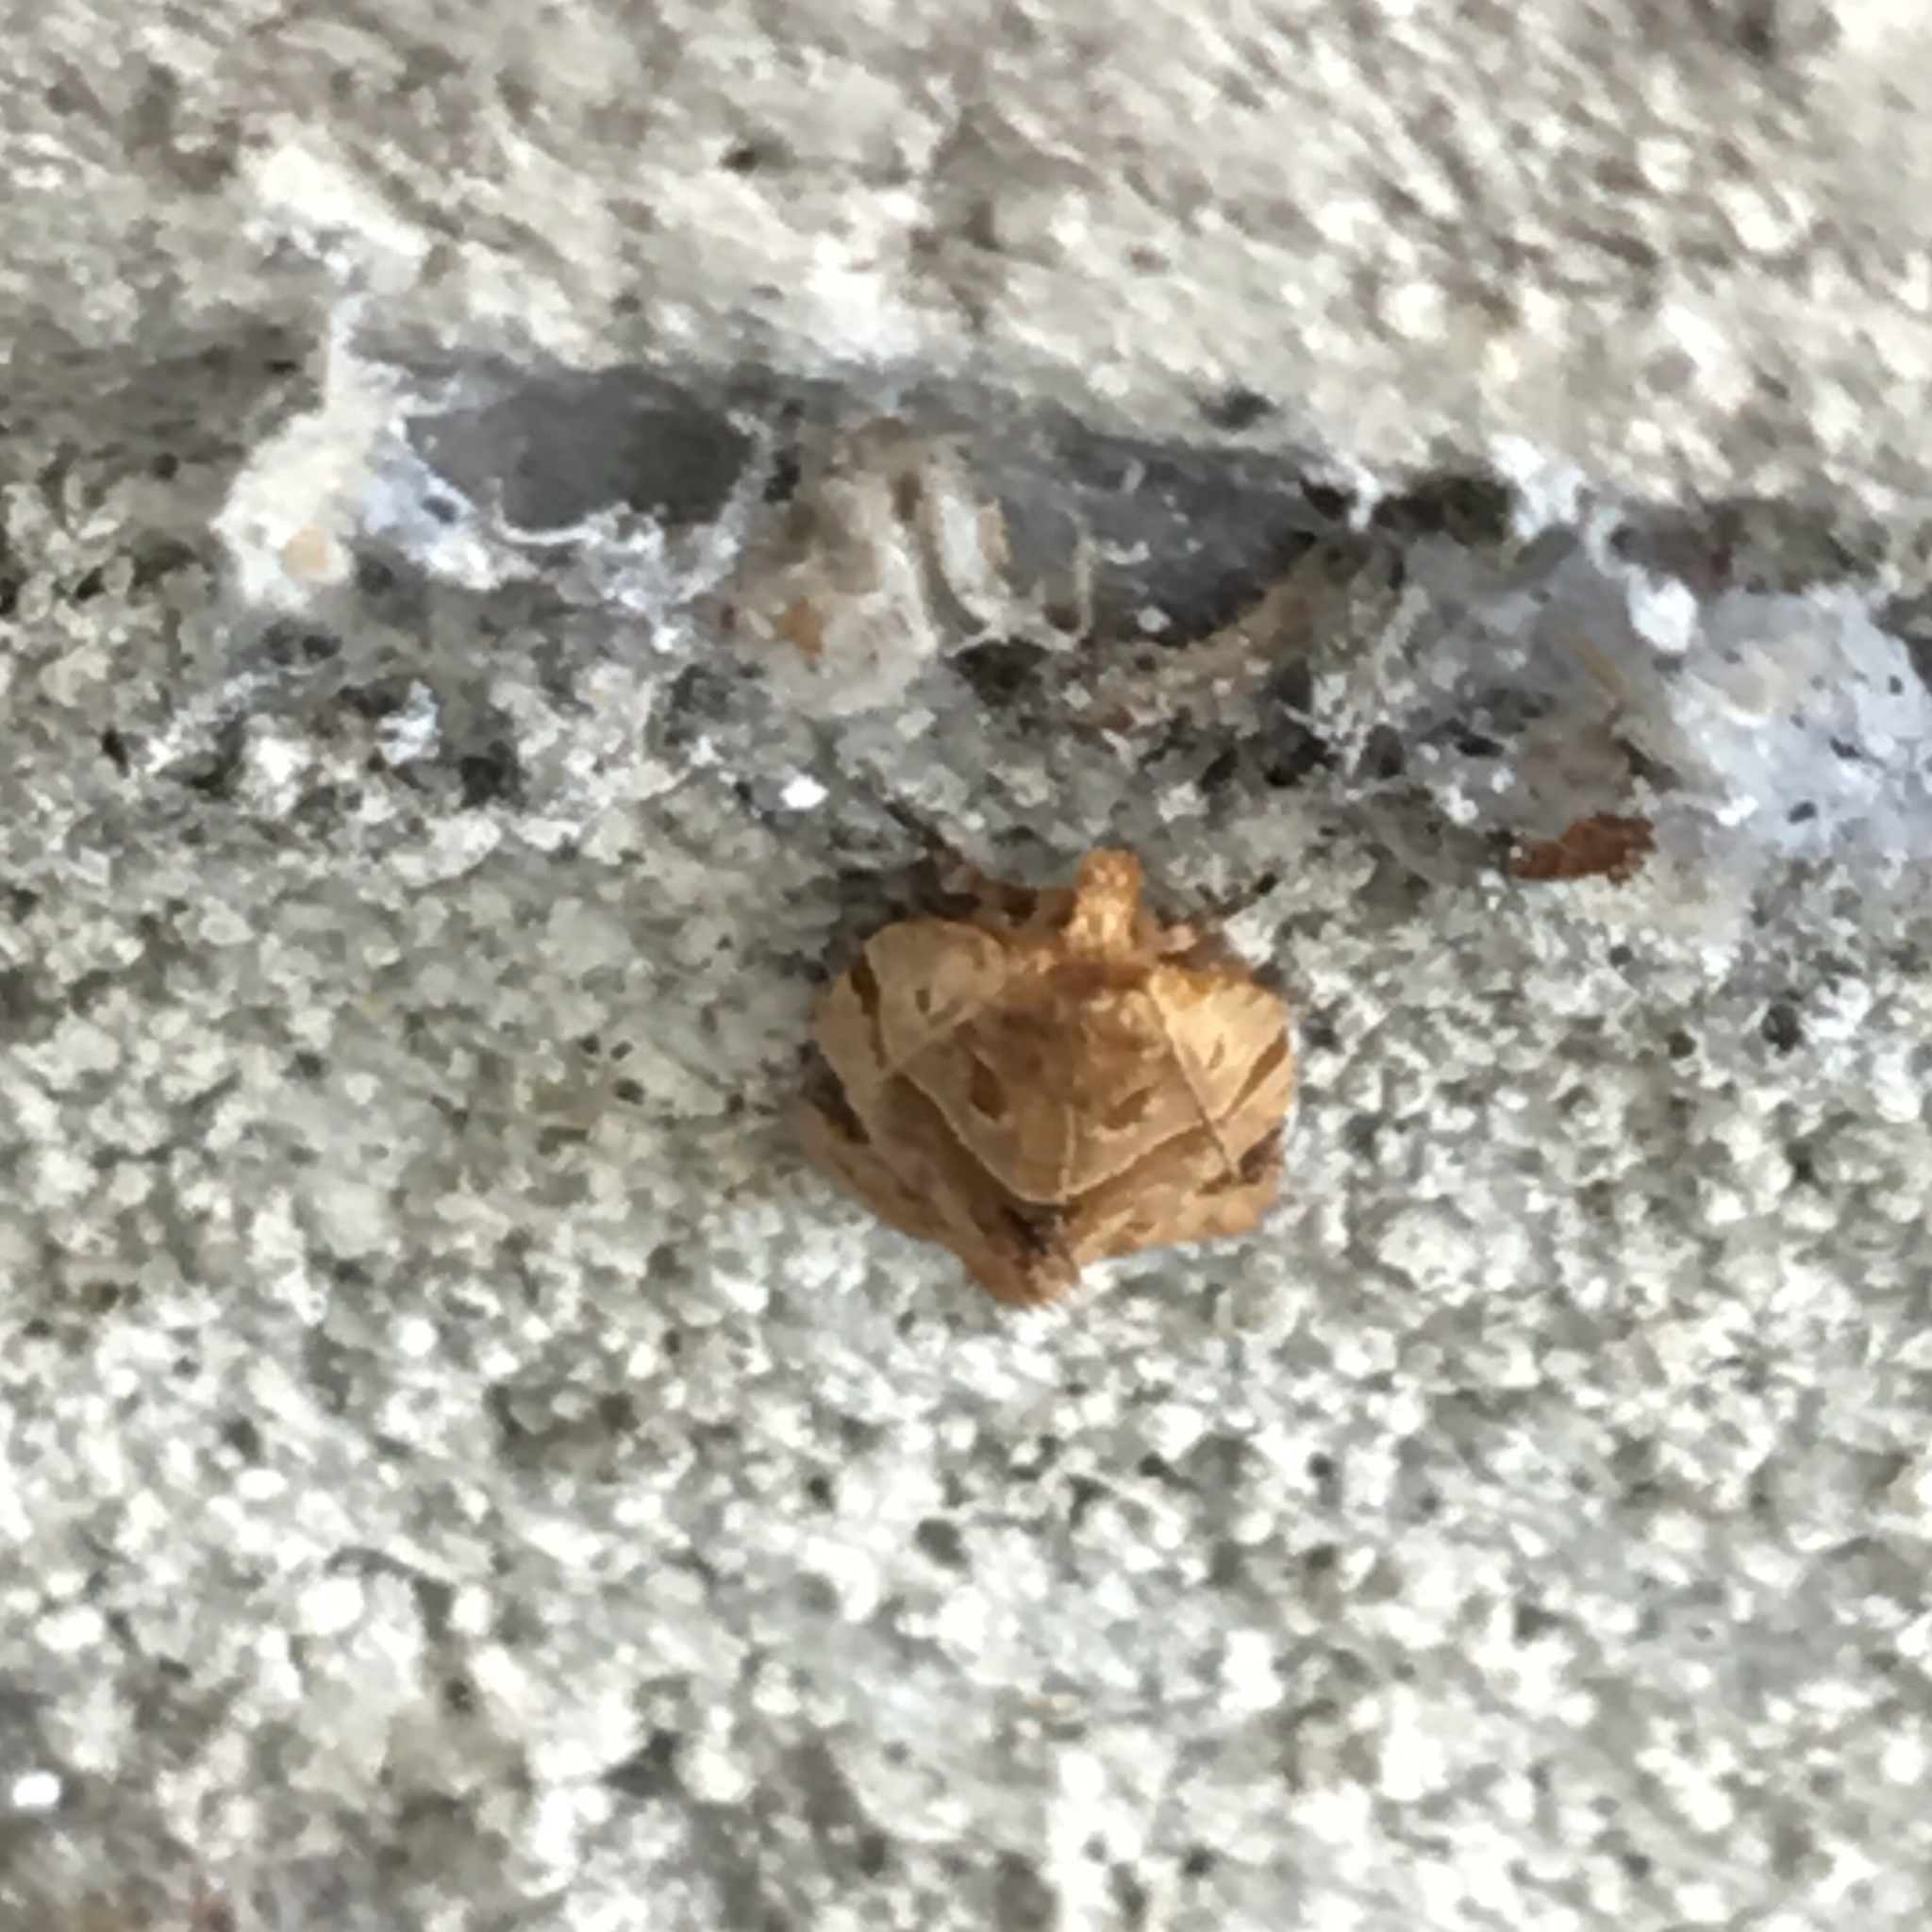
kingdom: Animalia
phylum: Arthropoda
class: Insecta
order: Lepidoptera
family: Tortricidae
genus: Clepsis
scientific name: Clepsis peritana
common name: Garden tortrix
